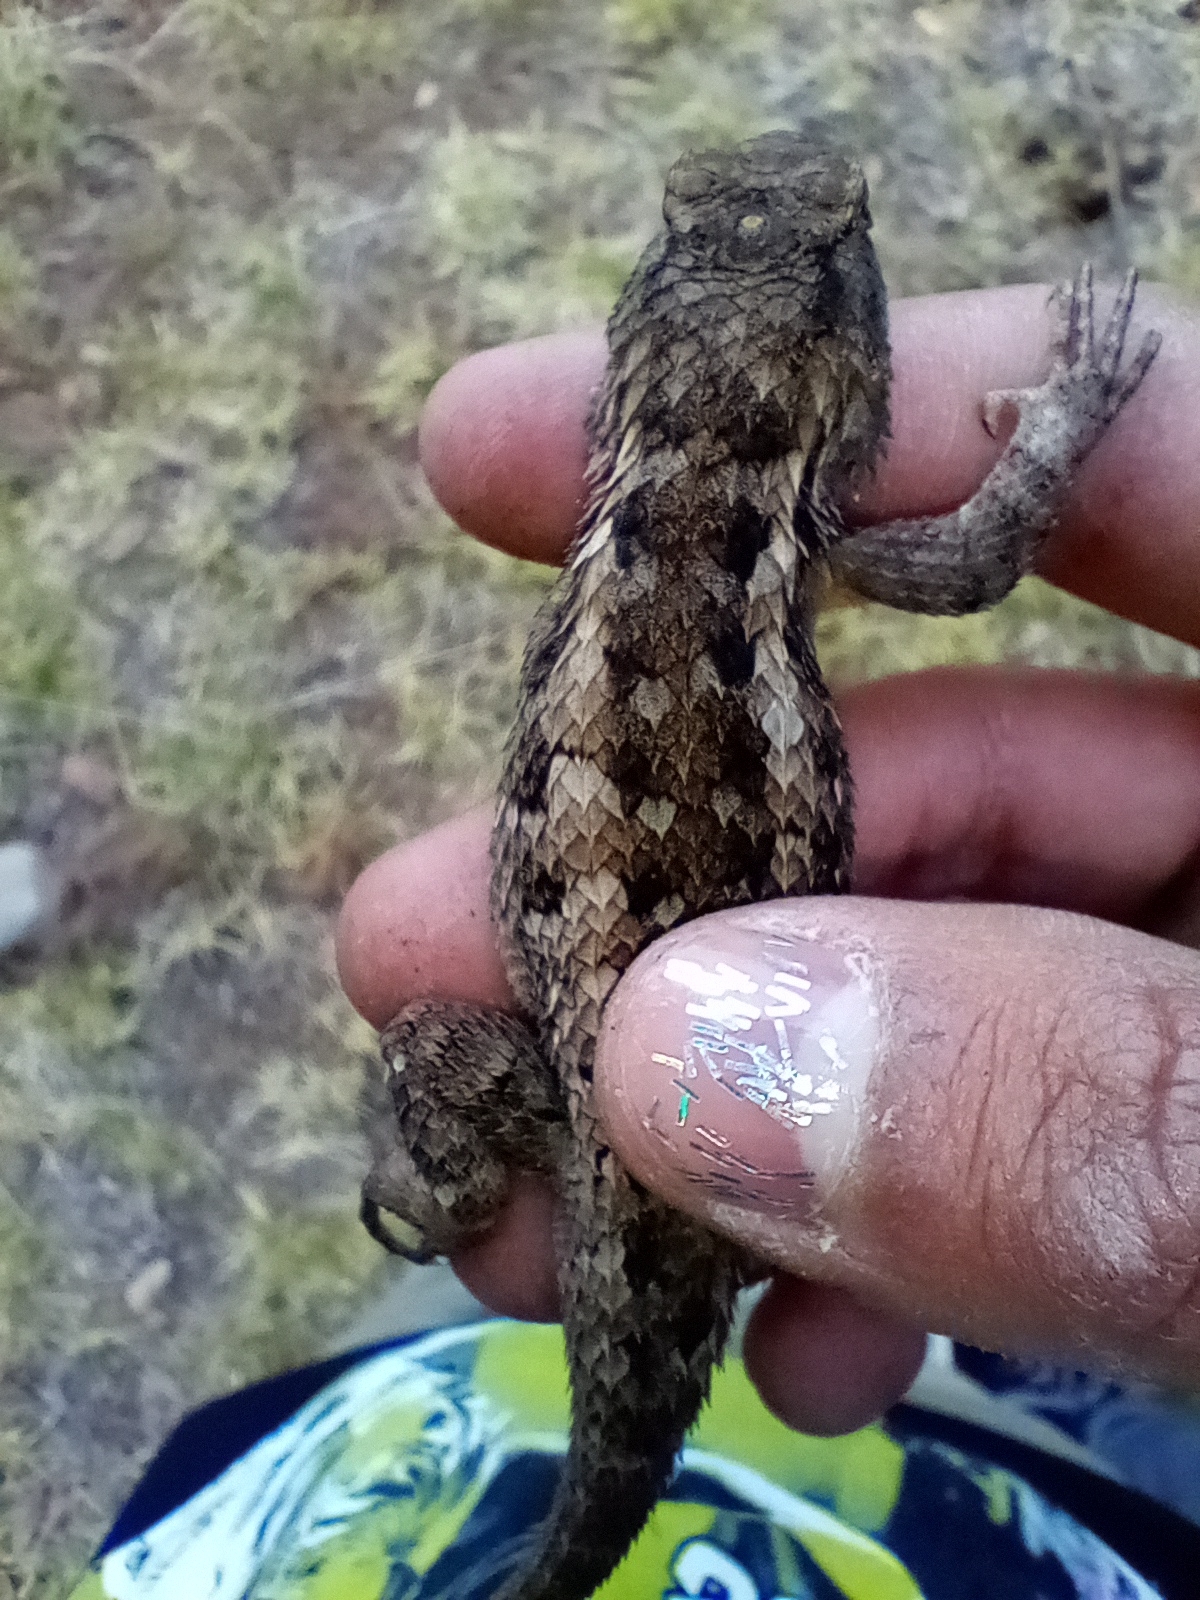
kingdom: Animalia
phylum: Chordata
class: Squamata
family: Phrynosomatidae
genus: Sceloporus
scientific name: Sceloporus spinosus
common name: Blue-spotted spiny lizard [caeruleopunctatus]
